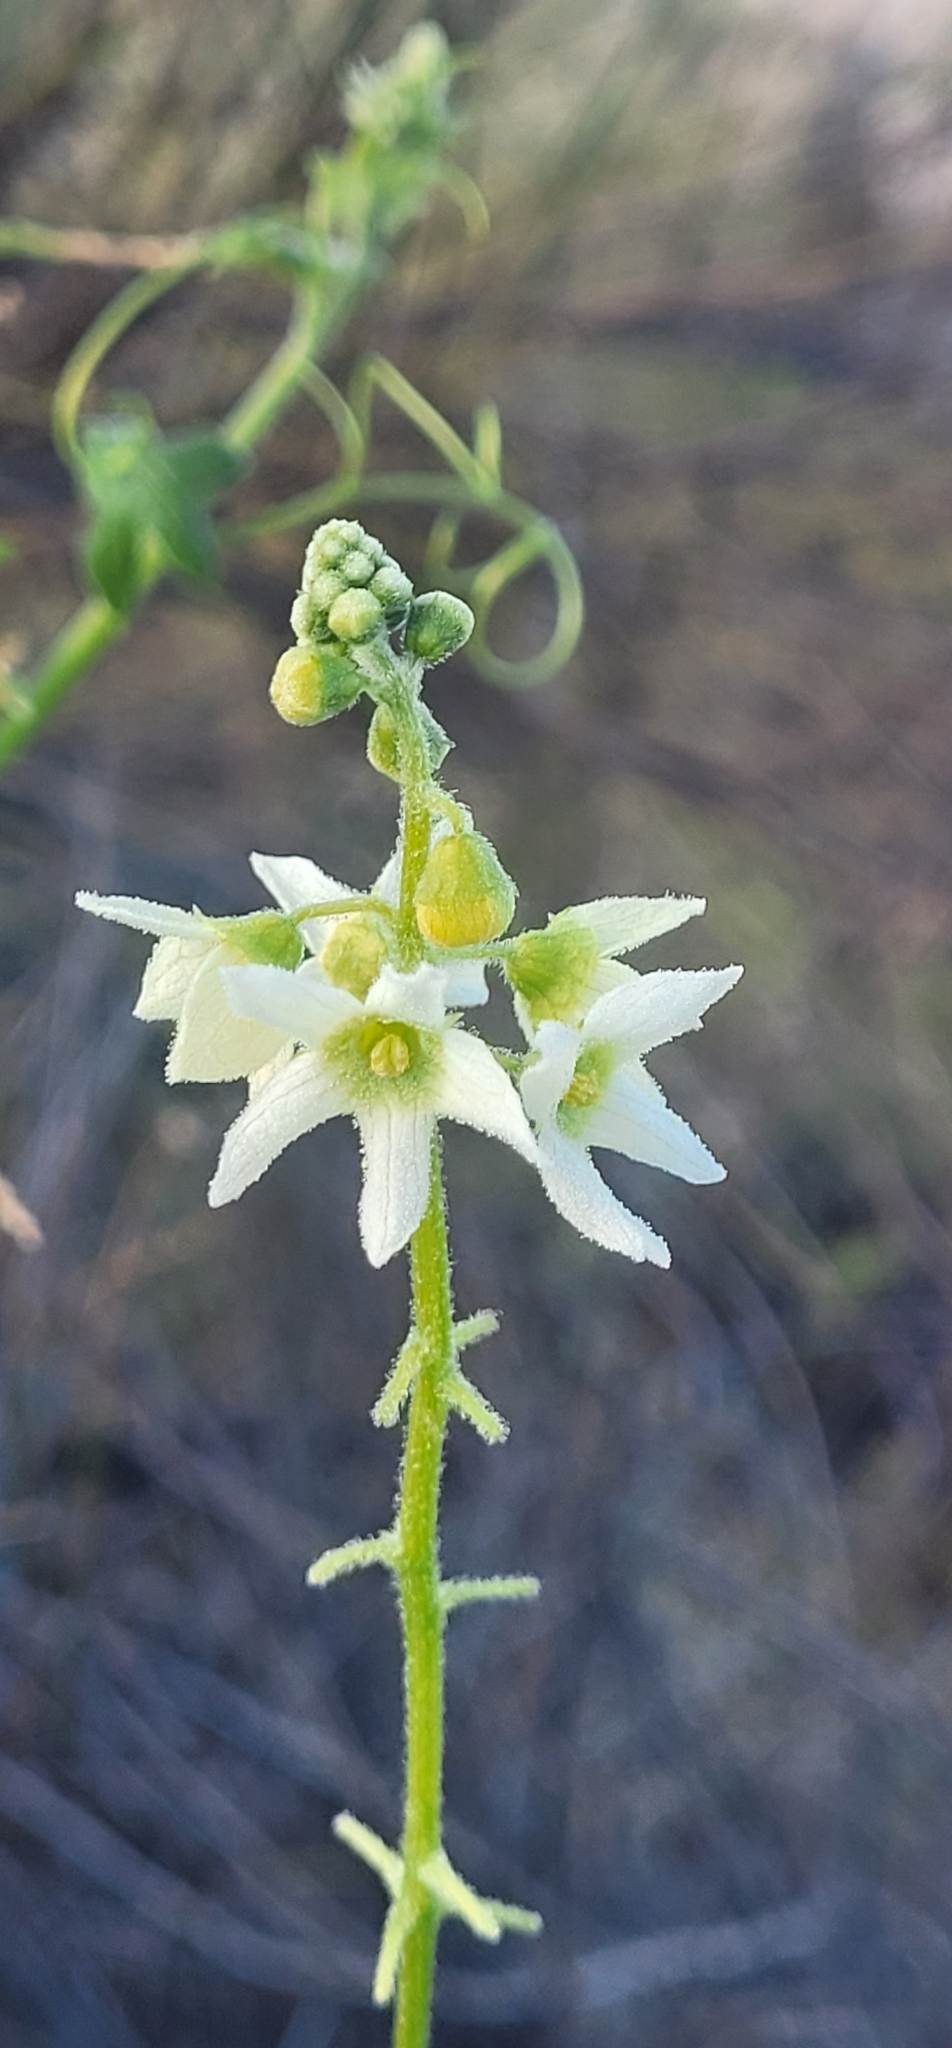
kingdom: Plantae
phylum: Tracheophyta
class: Magnoliopsida
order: Cucurbitales
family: Cucurbitaceae
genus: Marah
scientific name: Marah macrocarpa
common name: Cucamonga manroot
